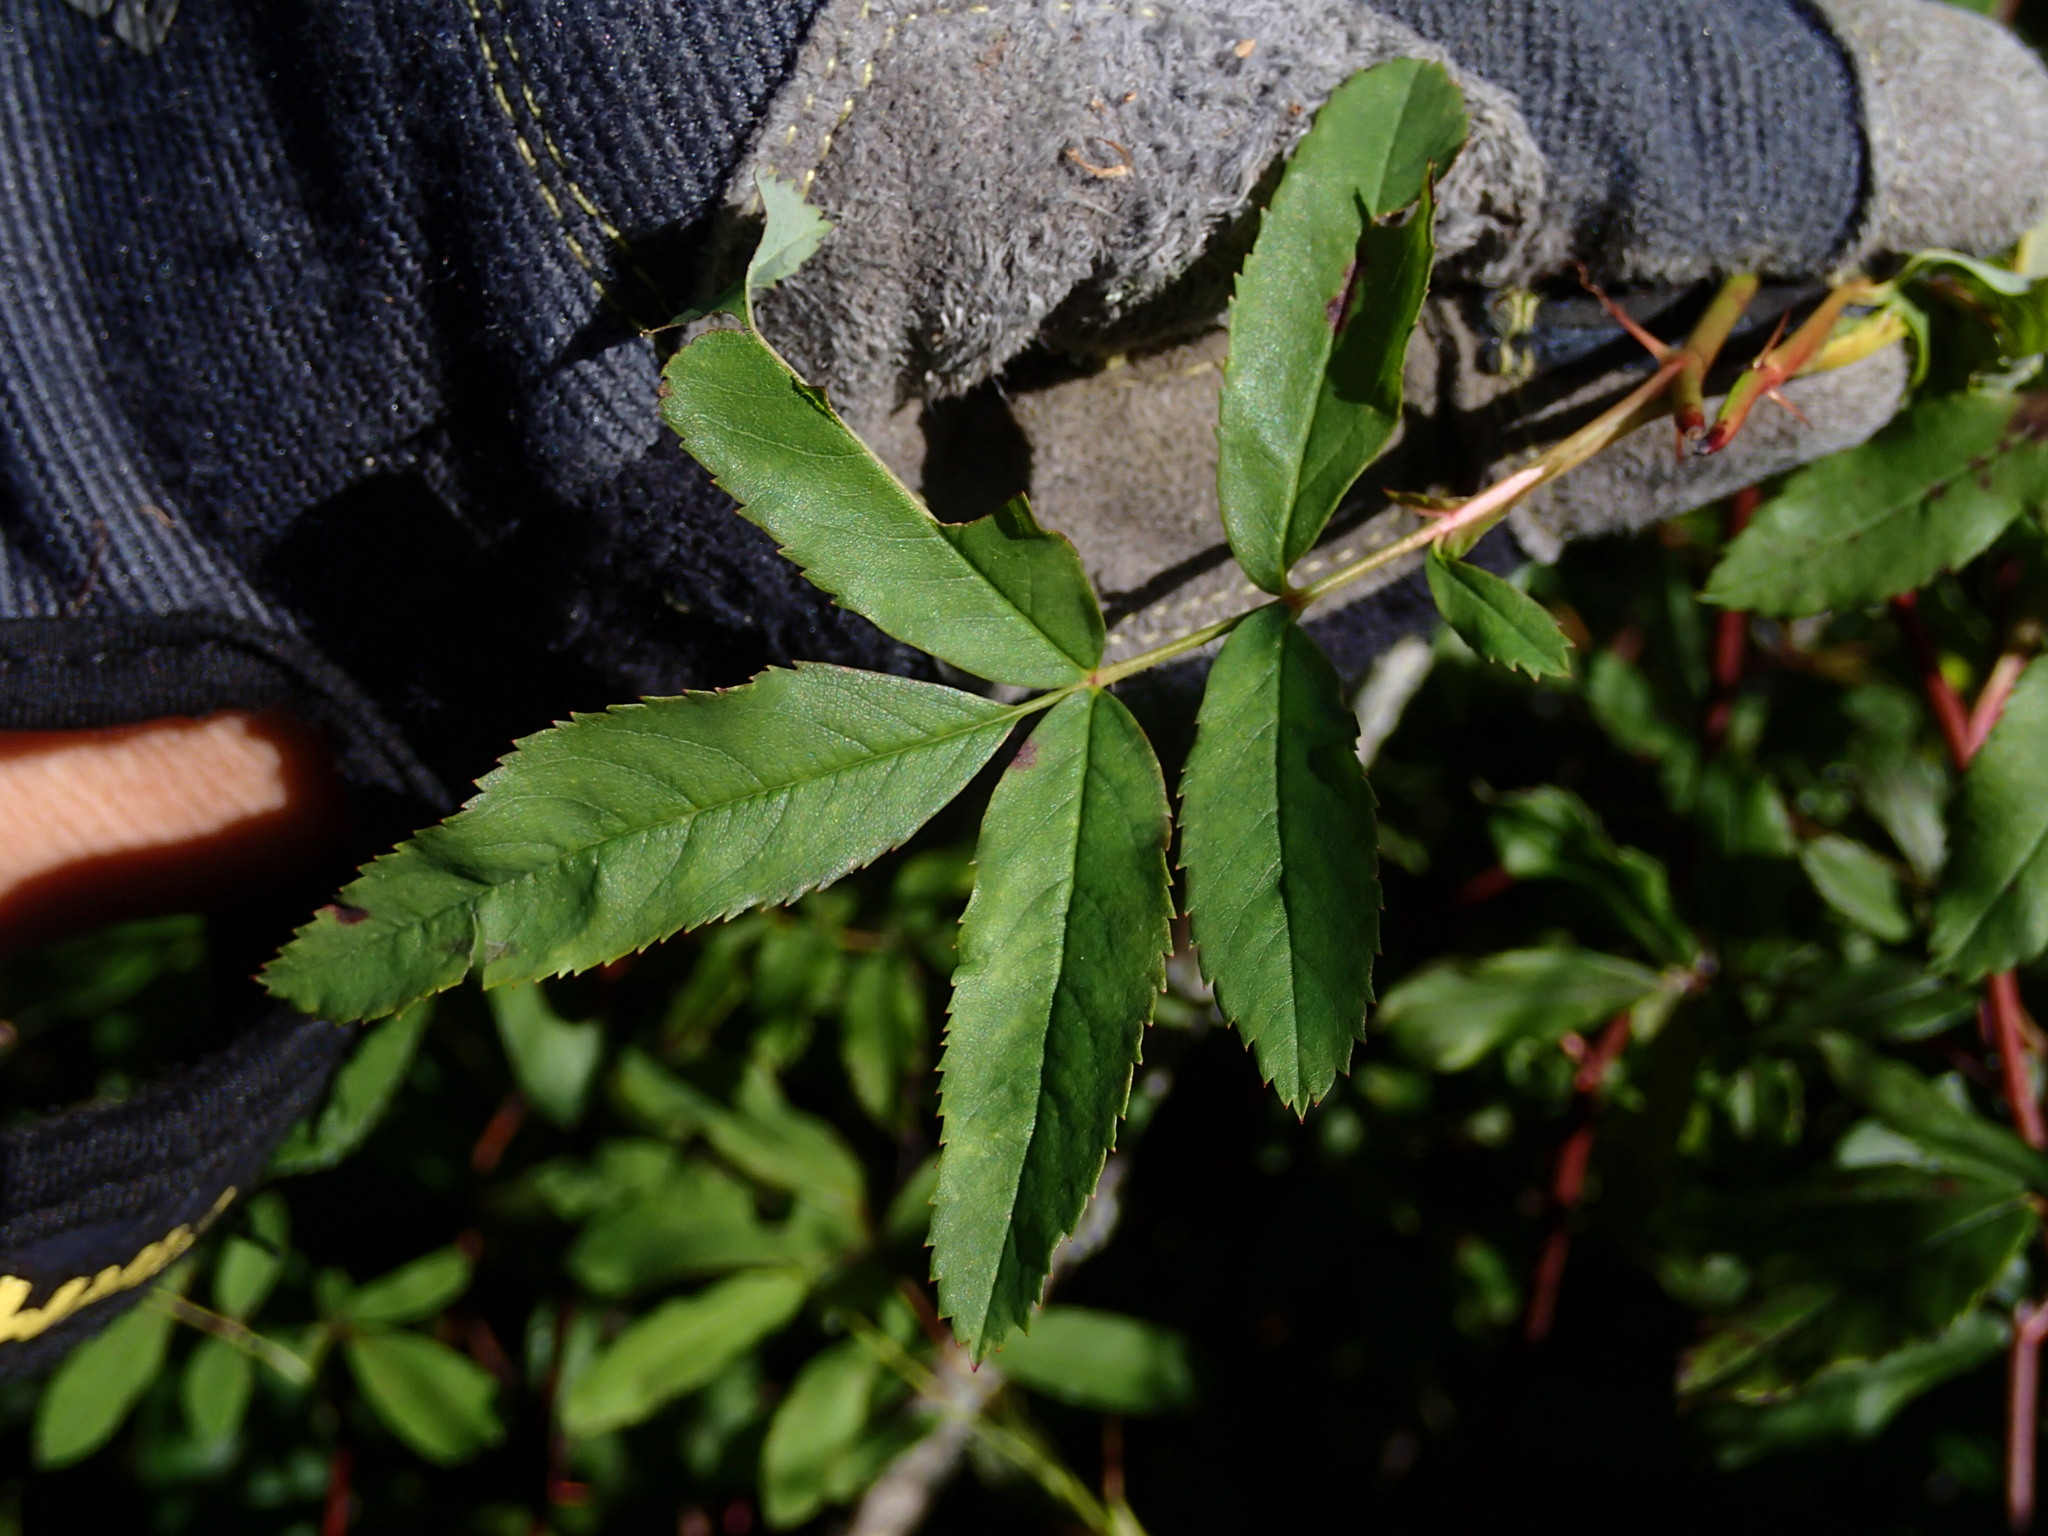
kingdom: Plantae
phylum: Tracheophyta
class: Magnoliopsida
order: Rosales
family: Rosaceae
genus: Rosa
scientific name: Rosa palustris
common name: Swamp rose
